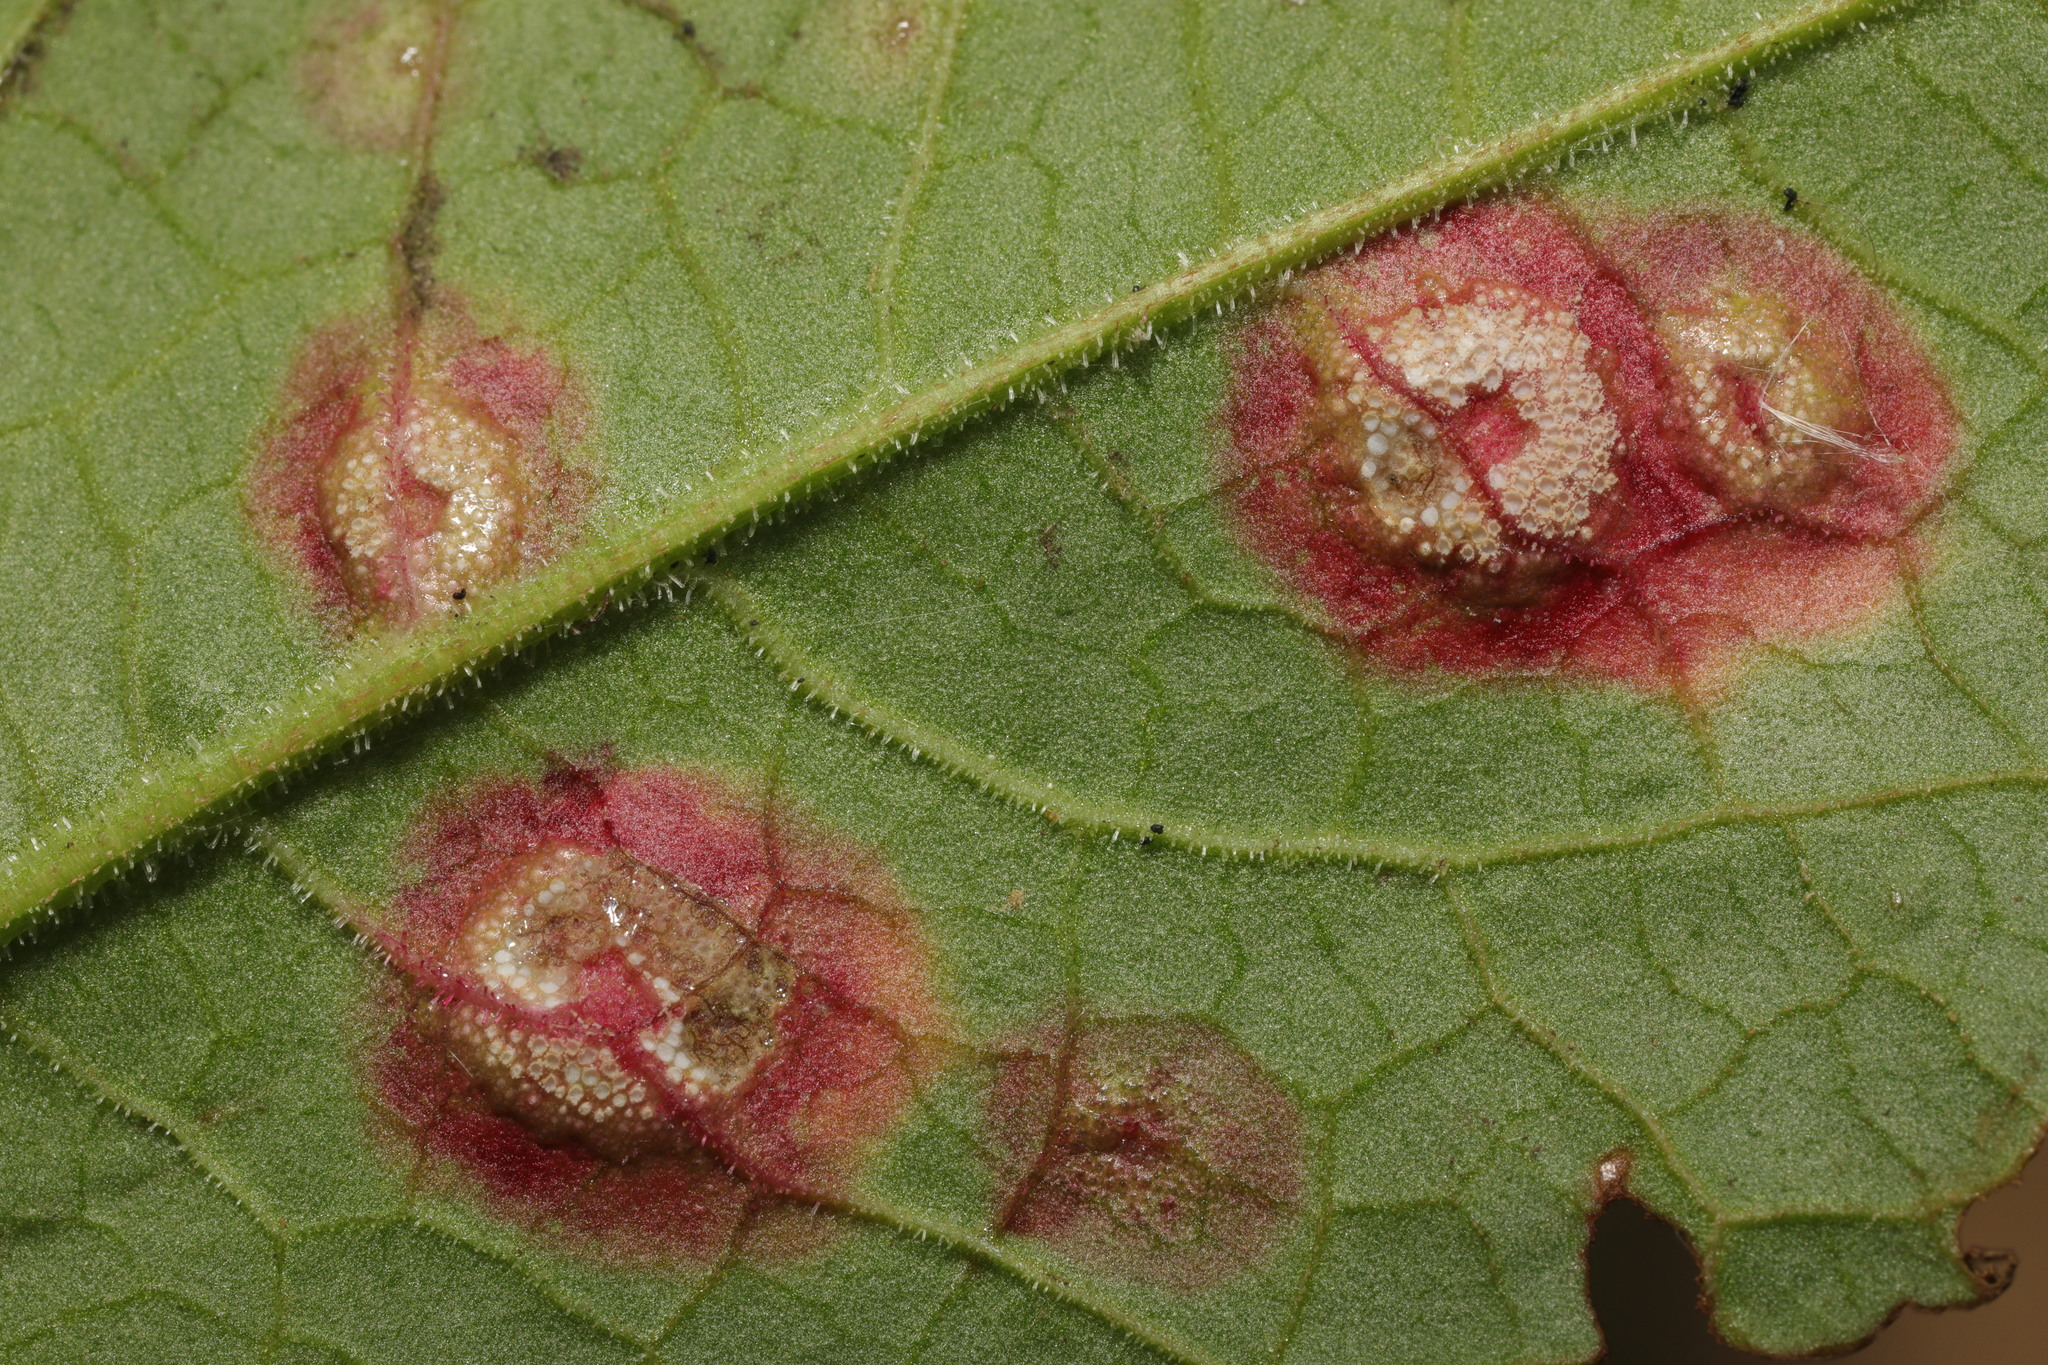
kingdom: Fungi
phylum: Basidiomycota
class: Pucciniomycetes
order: Pucciniales
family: Pucciniaceae
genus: Puccinia
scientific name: Puccinia phragmitis
